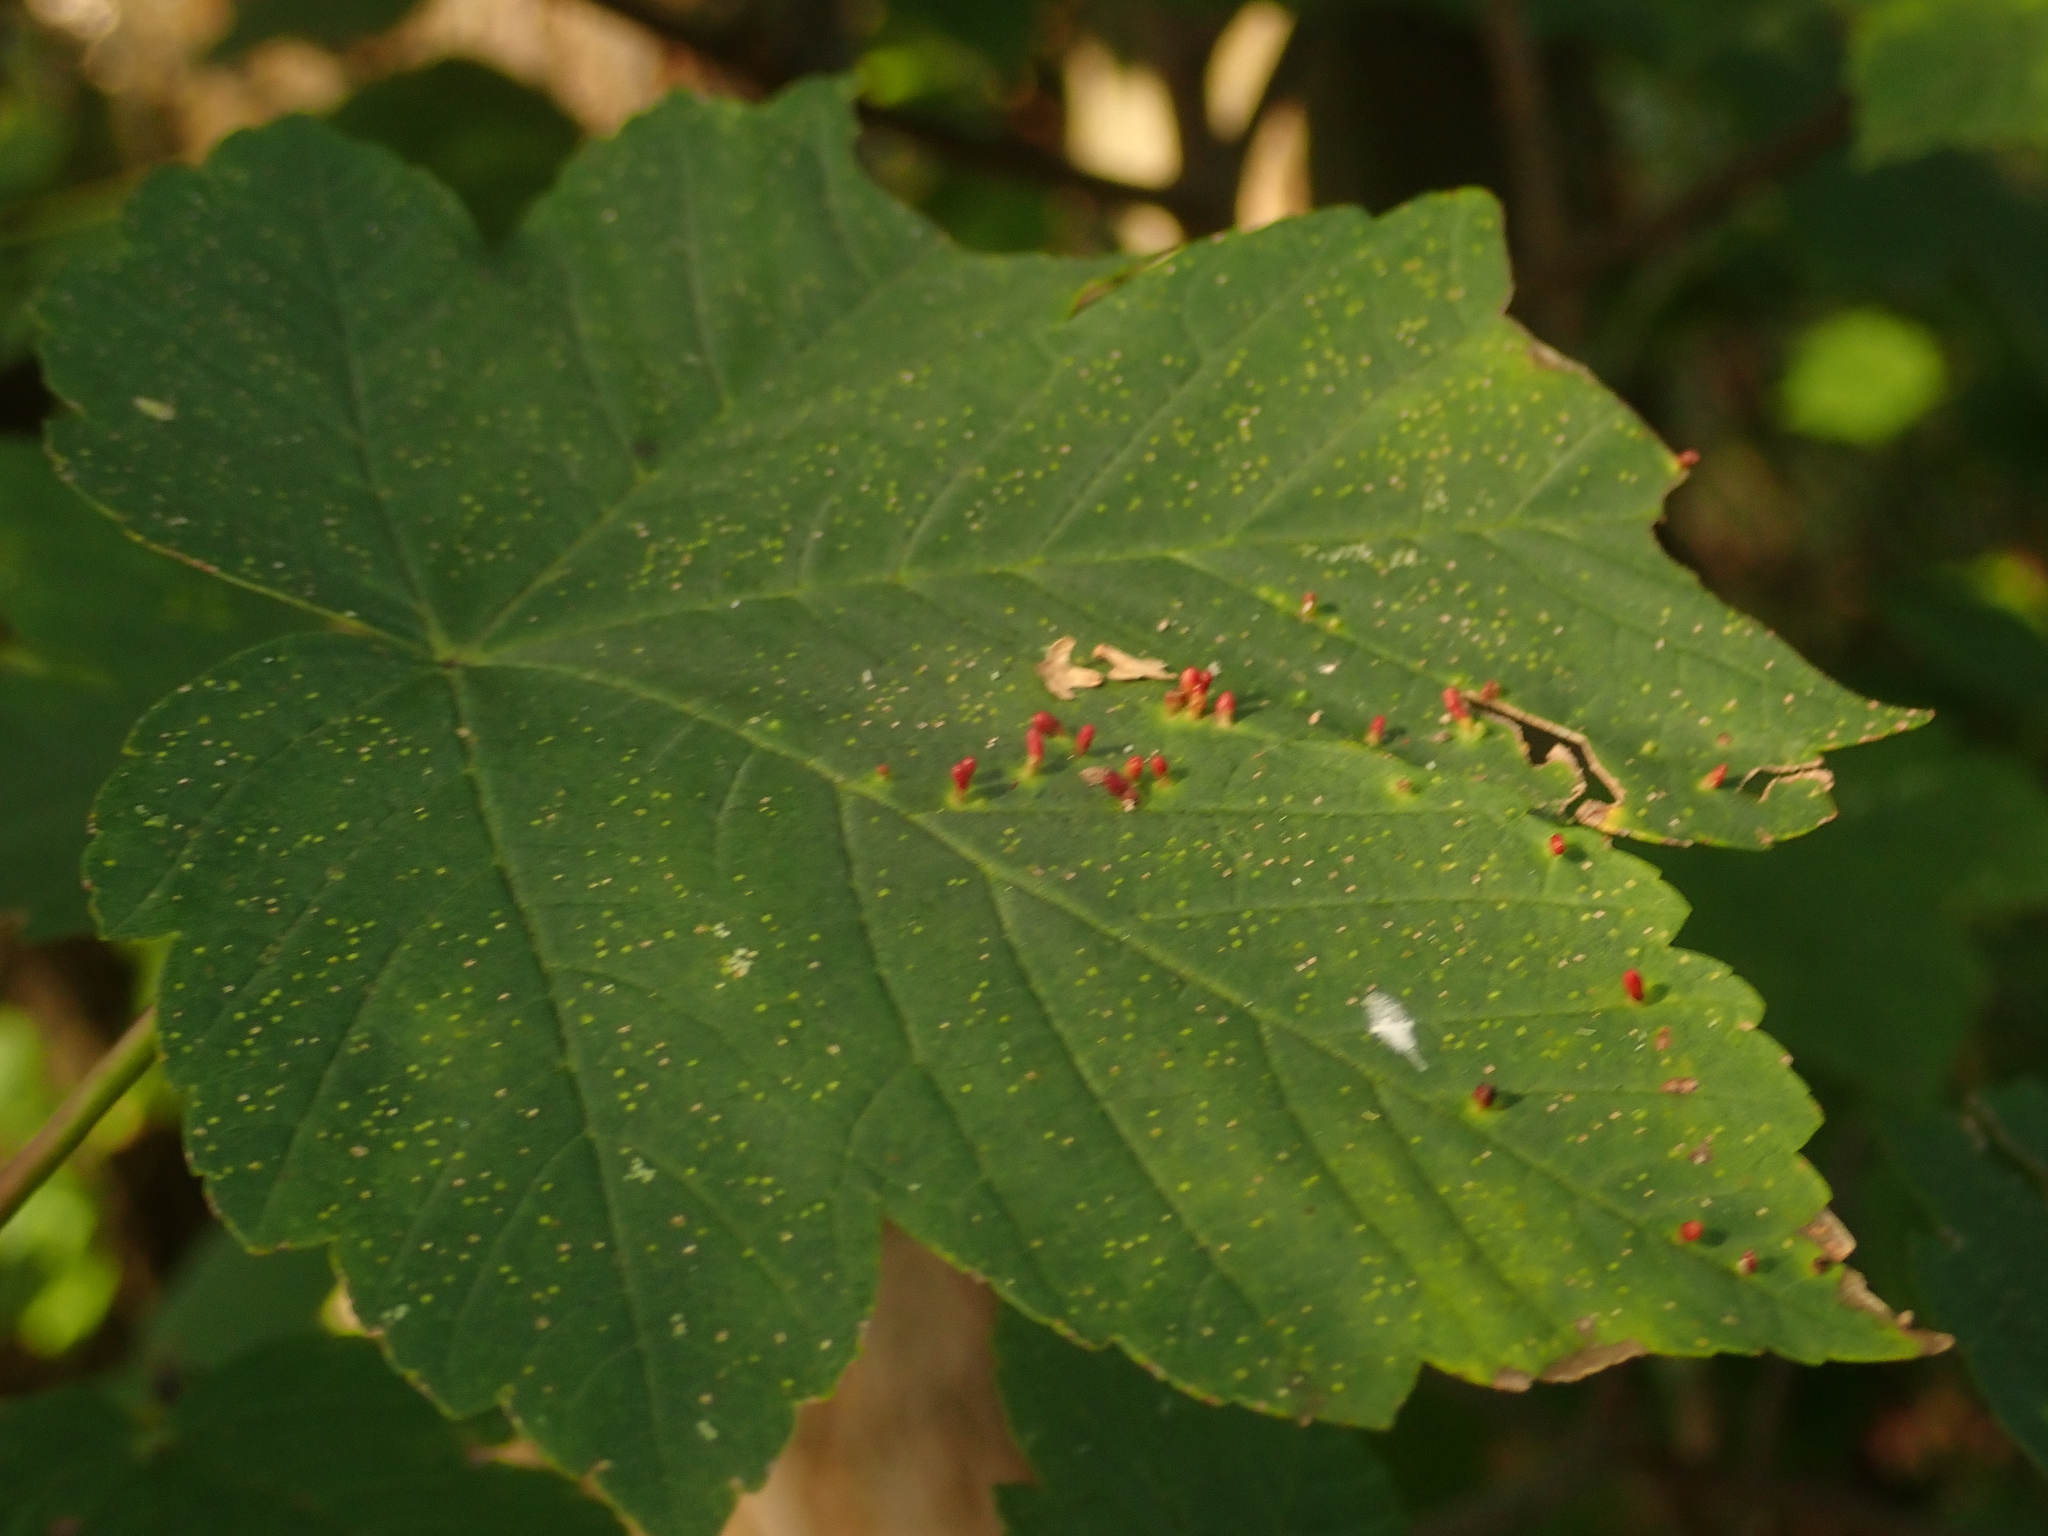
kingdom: Animalia
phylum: Arthropoda
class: Arachnida
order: Trombidiformes
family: Eriophyidae
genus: Aceria
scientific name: Aceria cephaloneus
